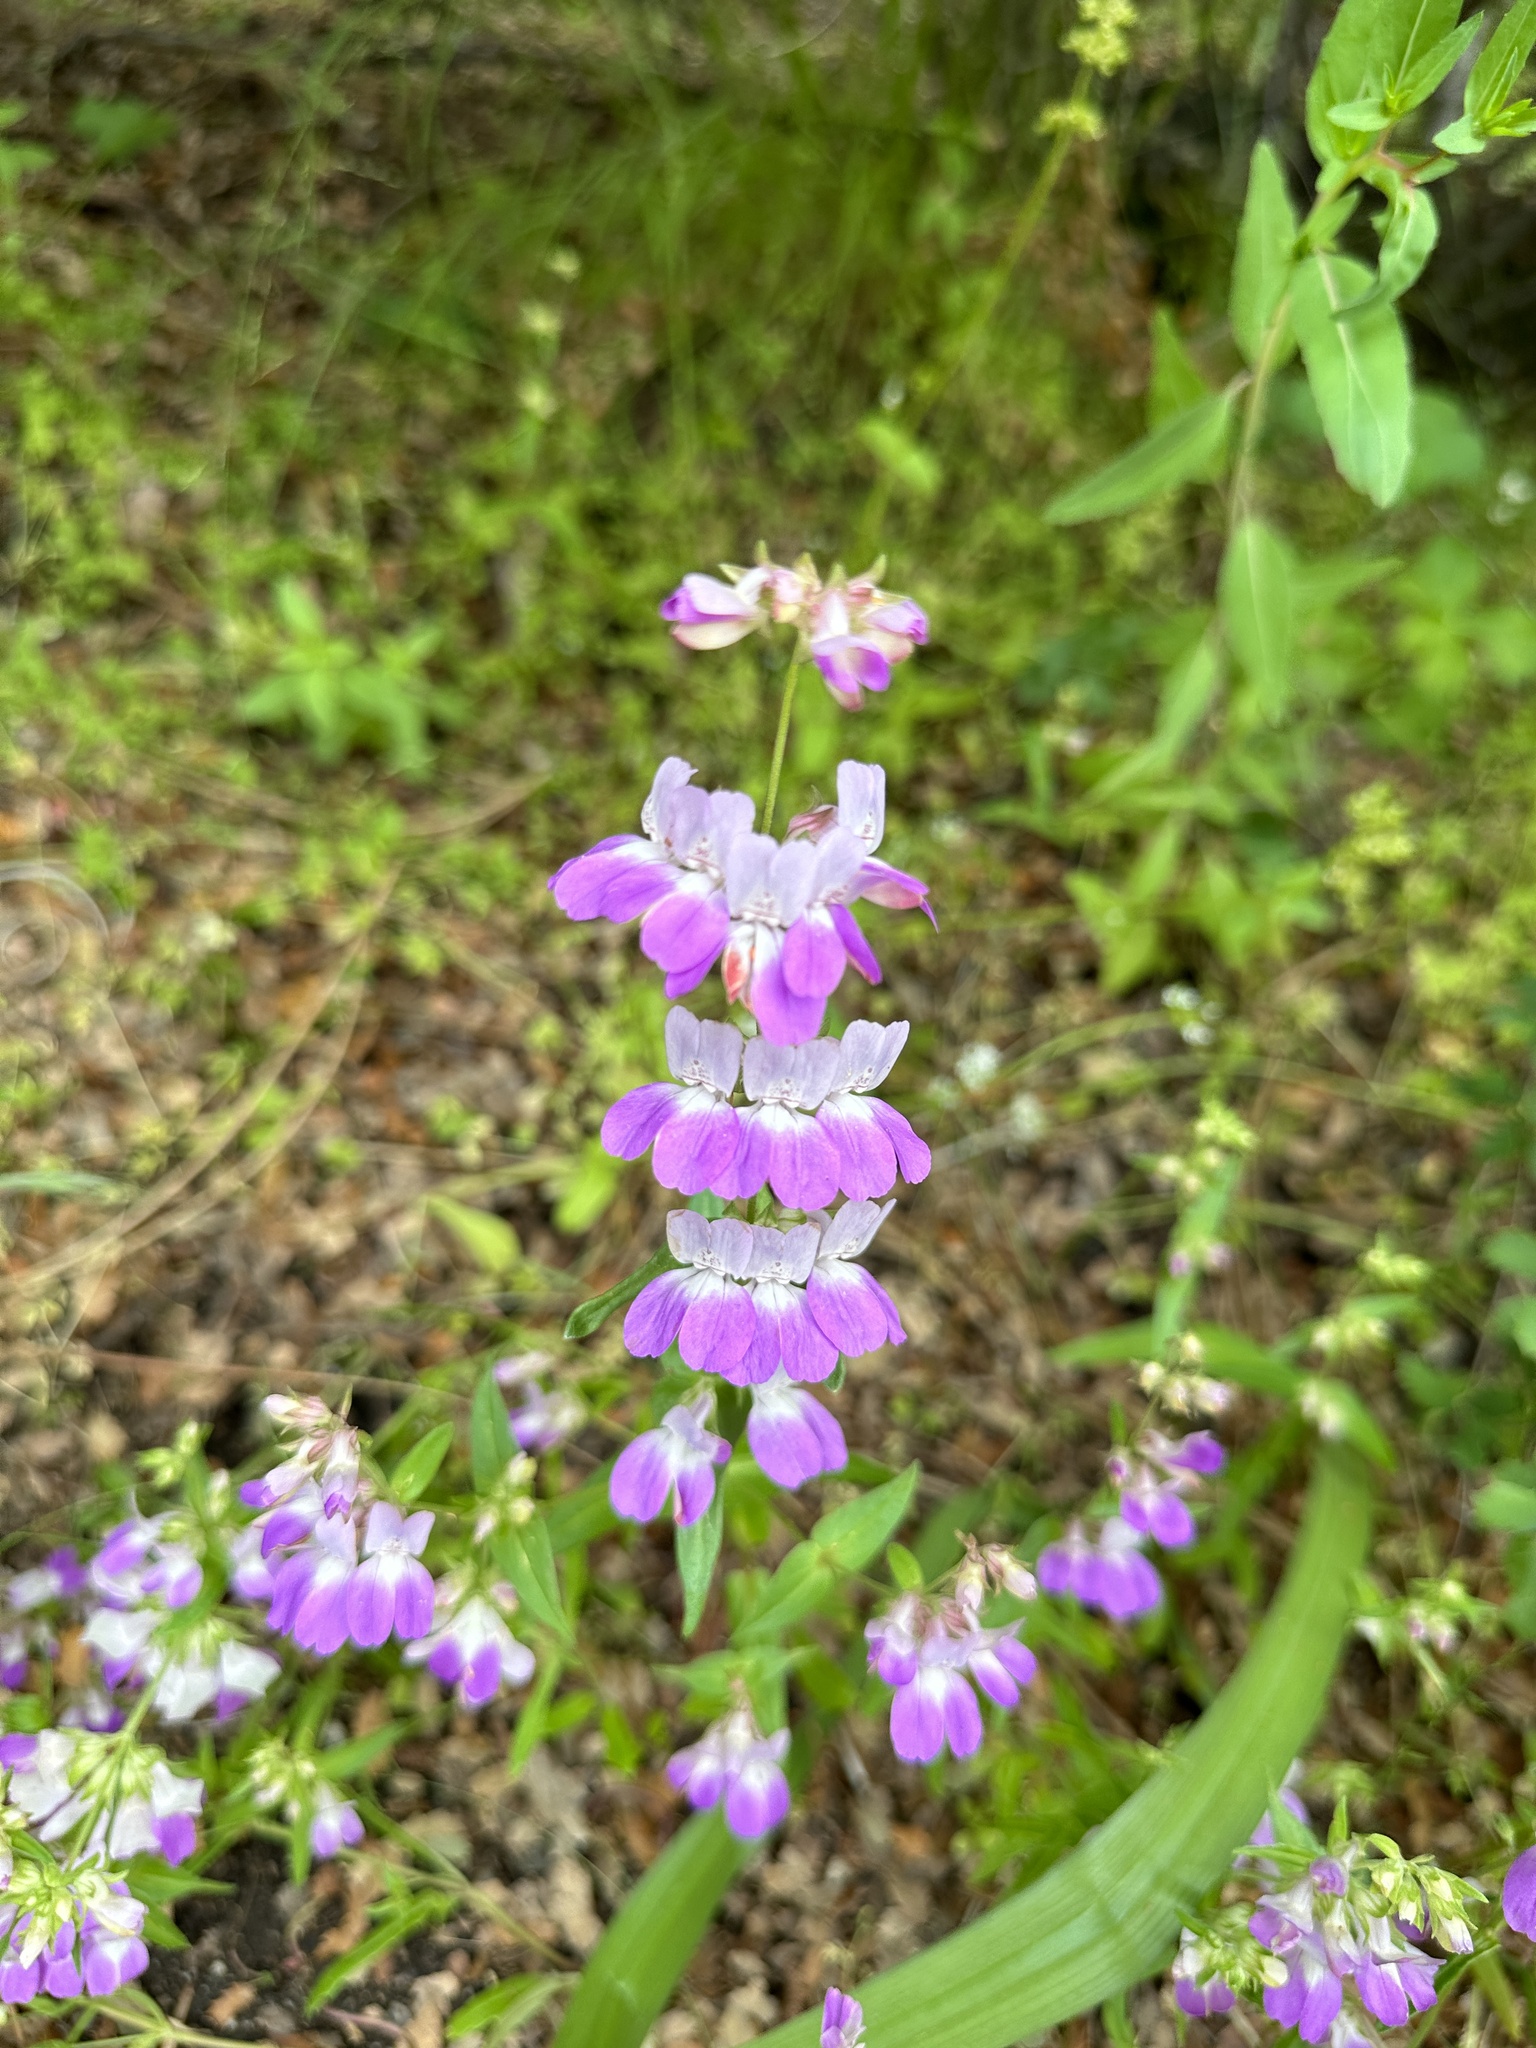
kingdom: Plantae
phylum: Tracheophyta
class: Magnoliopsida
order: Lamiales
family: Plantaginaceae
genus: Collinsia
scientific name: Collinsia heterophylla
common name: Chinese-houses
